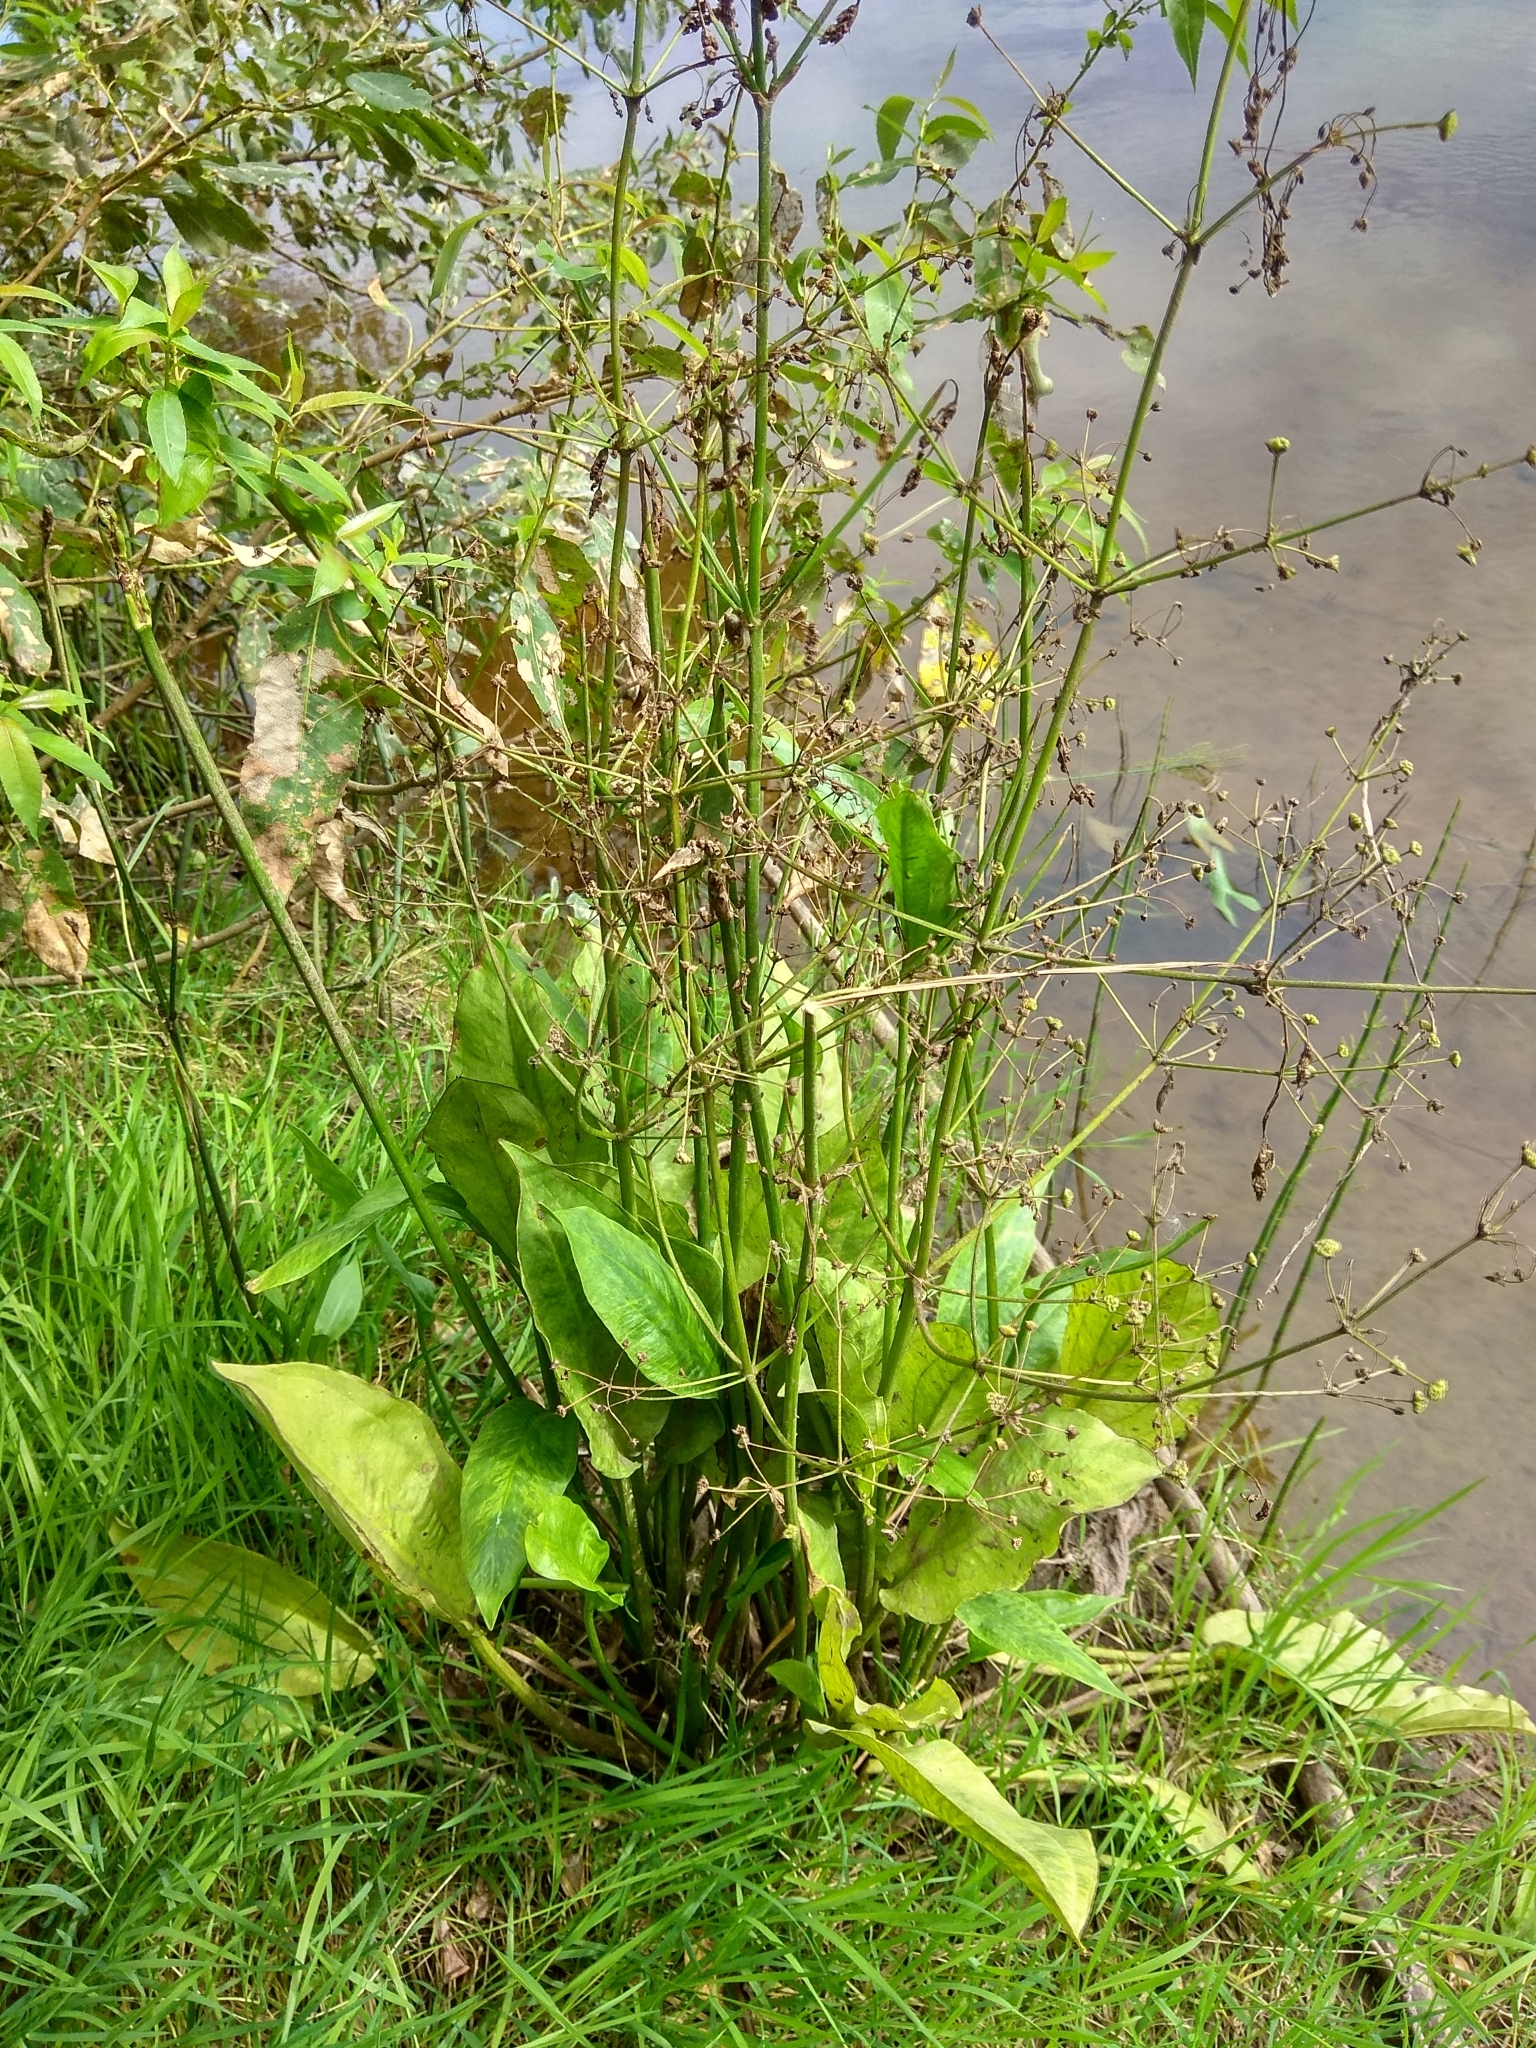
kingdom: Plantae
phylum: Tracheophyta
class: Liliopsida
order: Alismatales
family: Alismataceae
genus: Alisma
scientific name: Alisma plantago-aquatica
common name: Water-plantain
